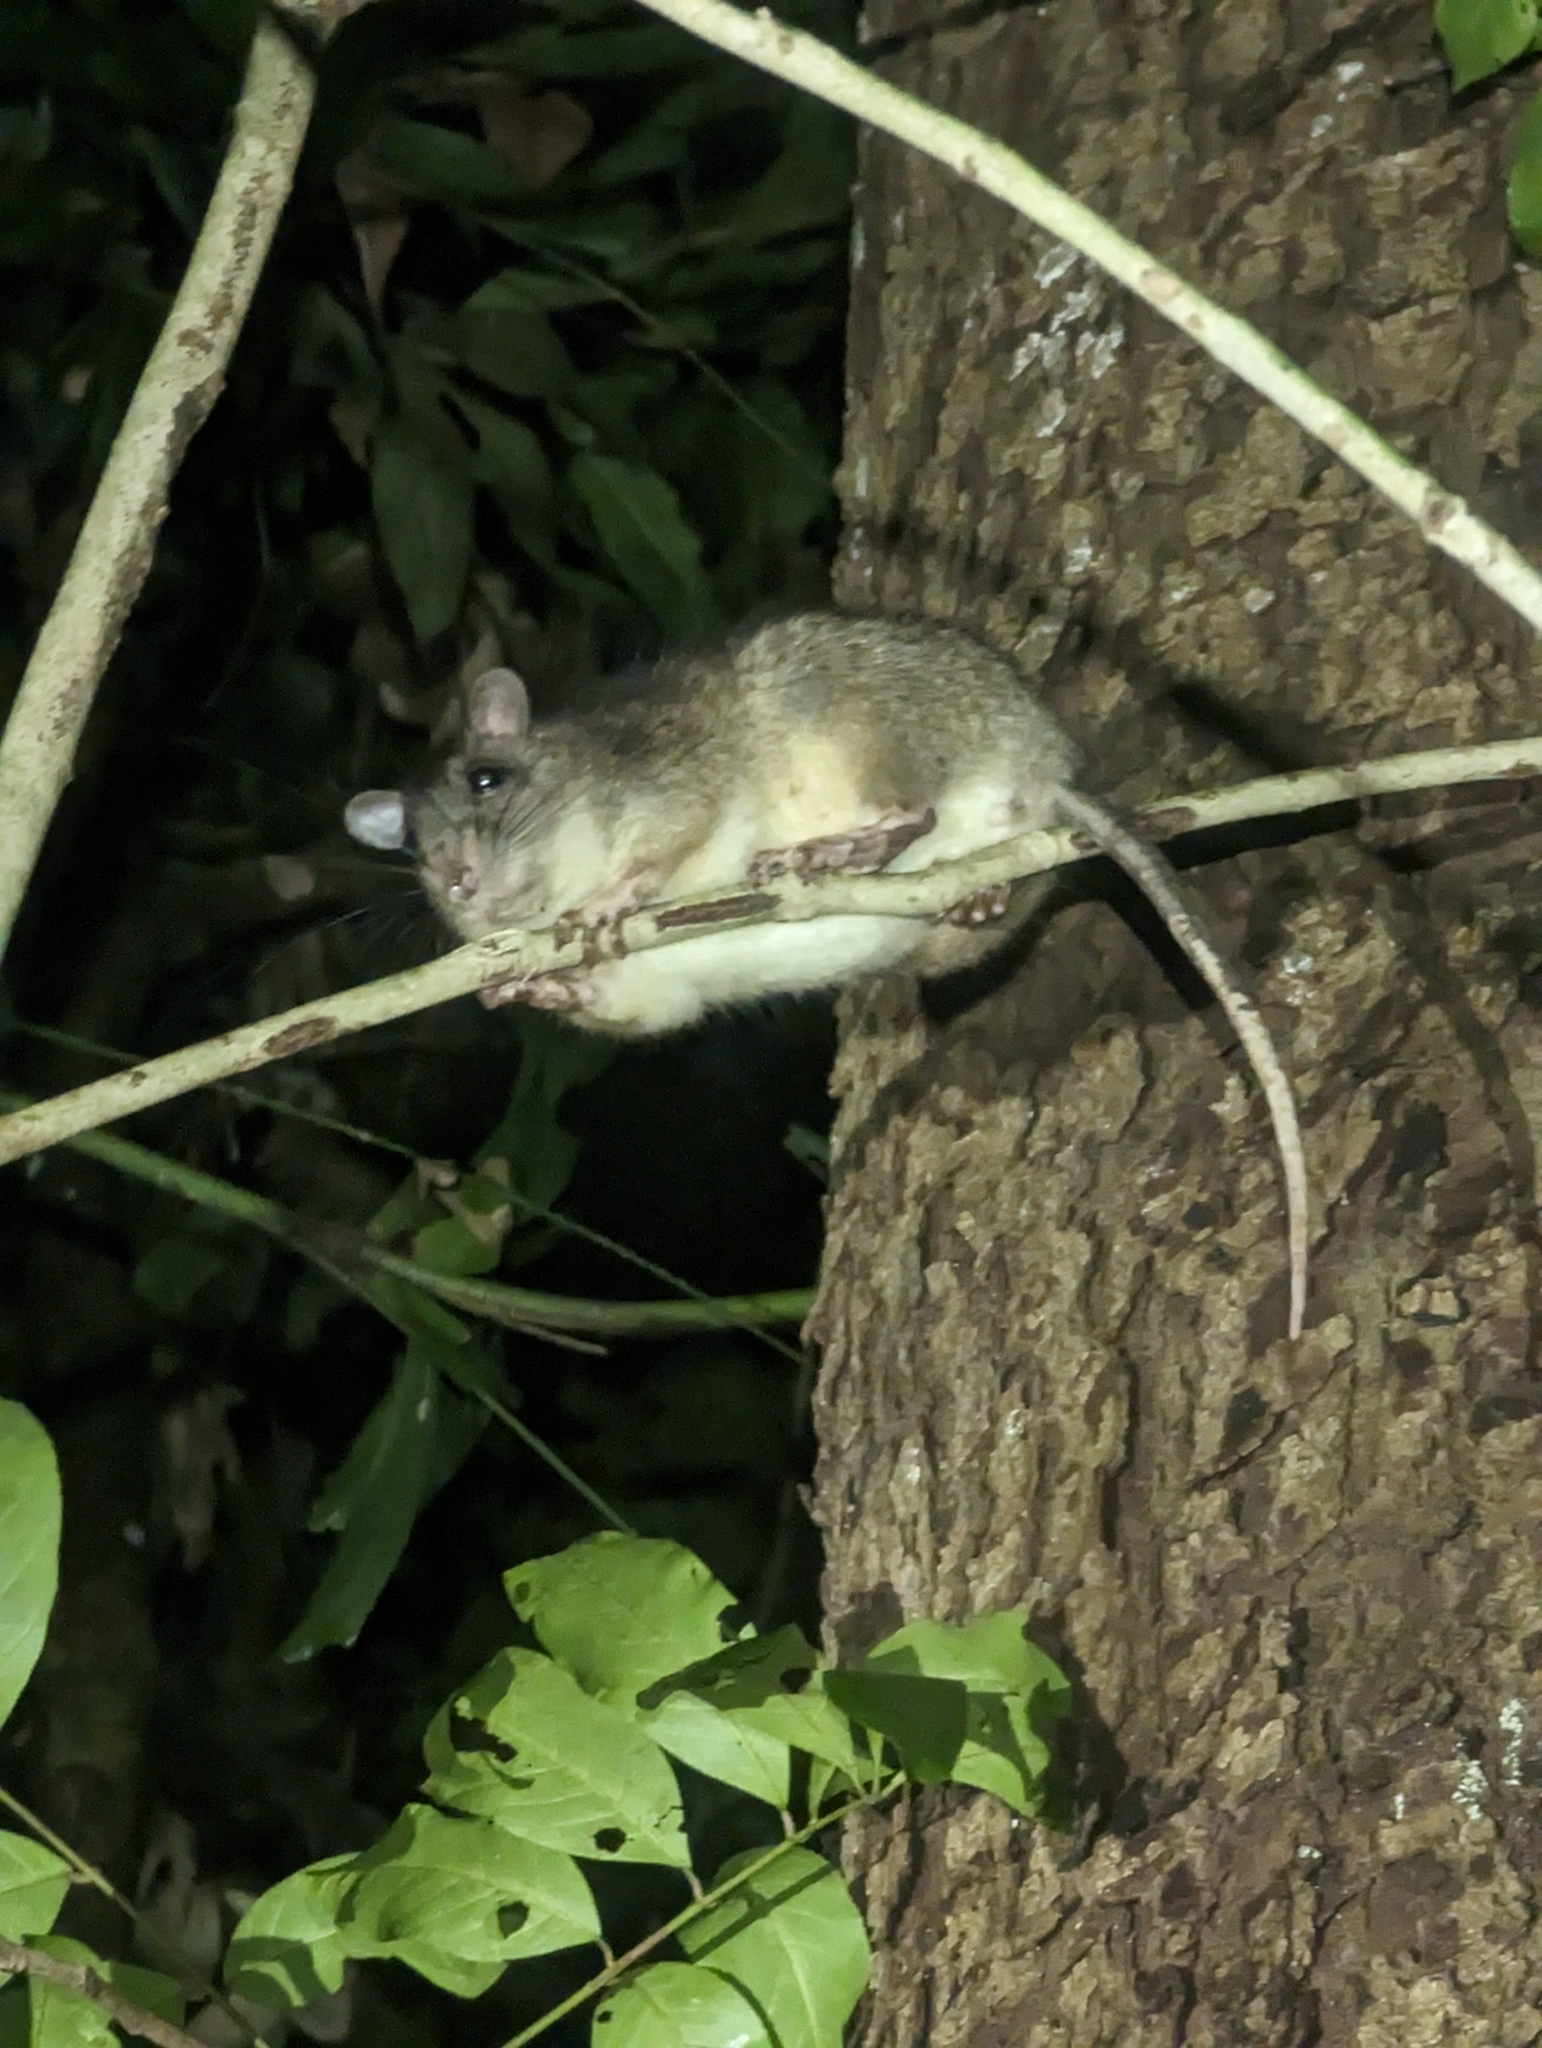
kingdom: Animalia
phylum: Chordata
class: Mammalia
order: Rodentia
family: Muridae
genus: Uromys
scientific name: Uromys caudimaculatus
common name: Giant white-tailed uromys
